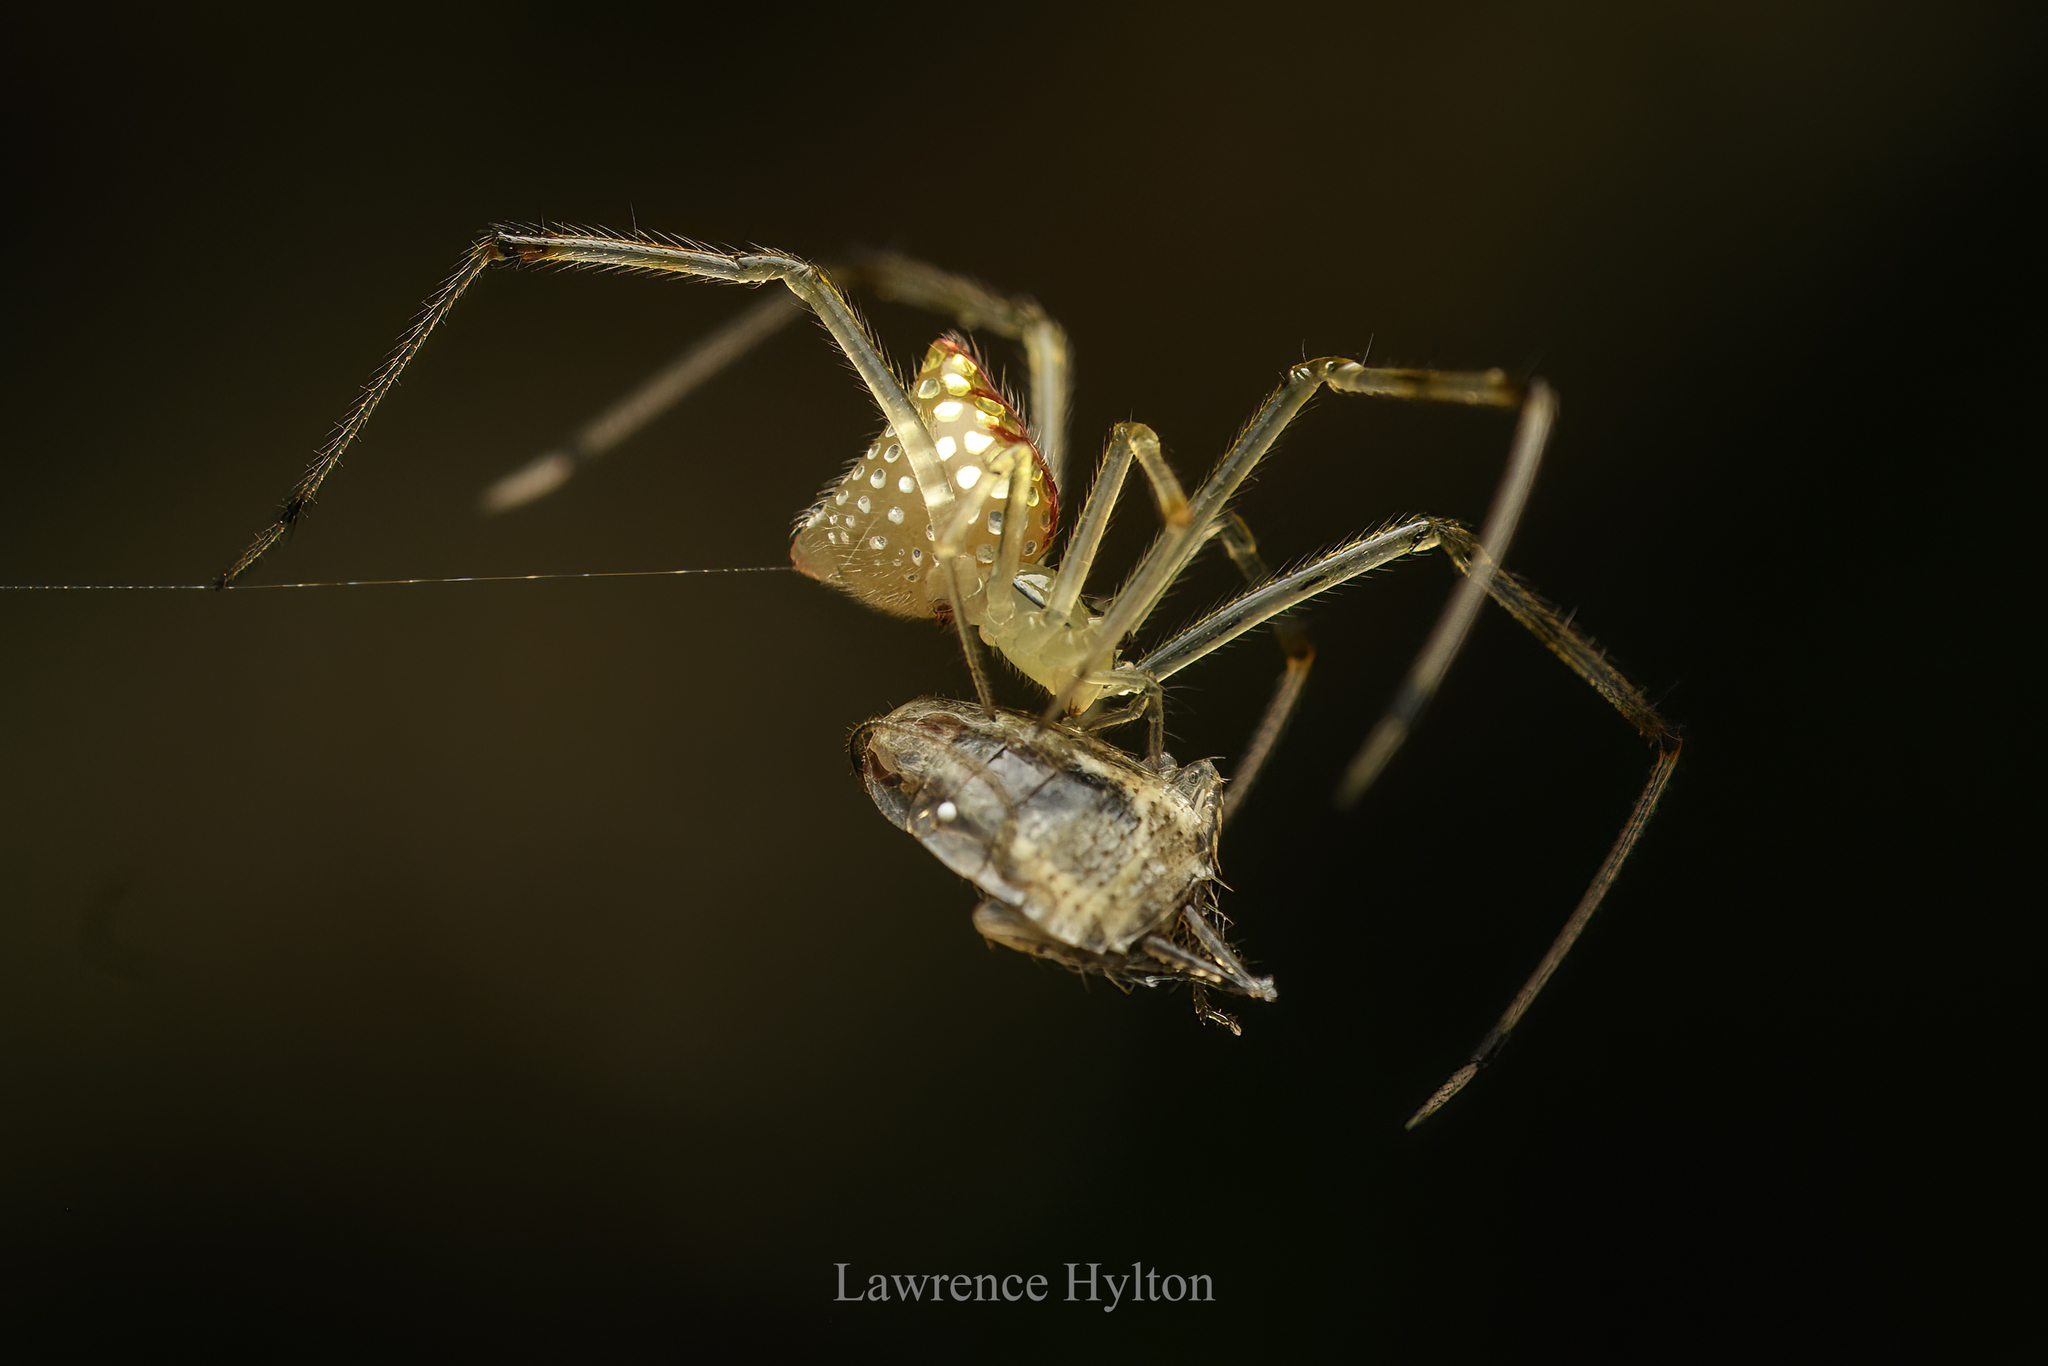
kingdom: Animalia
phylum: Arthropoda
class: Arachnida
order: Araneae
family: Theridiidae
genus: Thwaitesia
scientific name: Thwaitesia margaritifera
